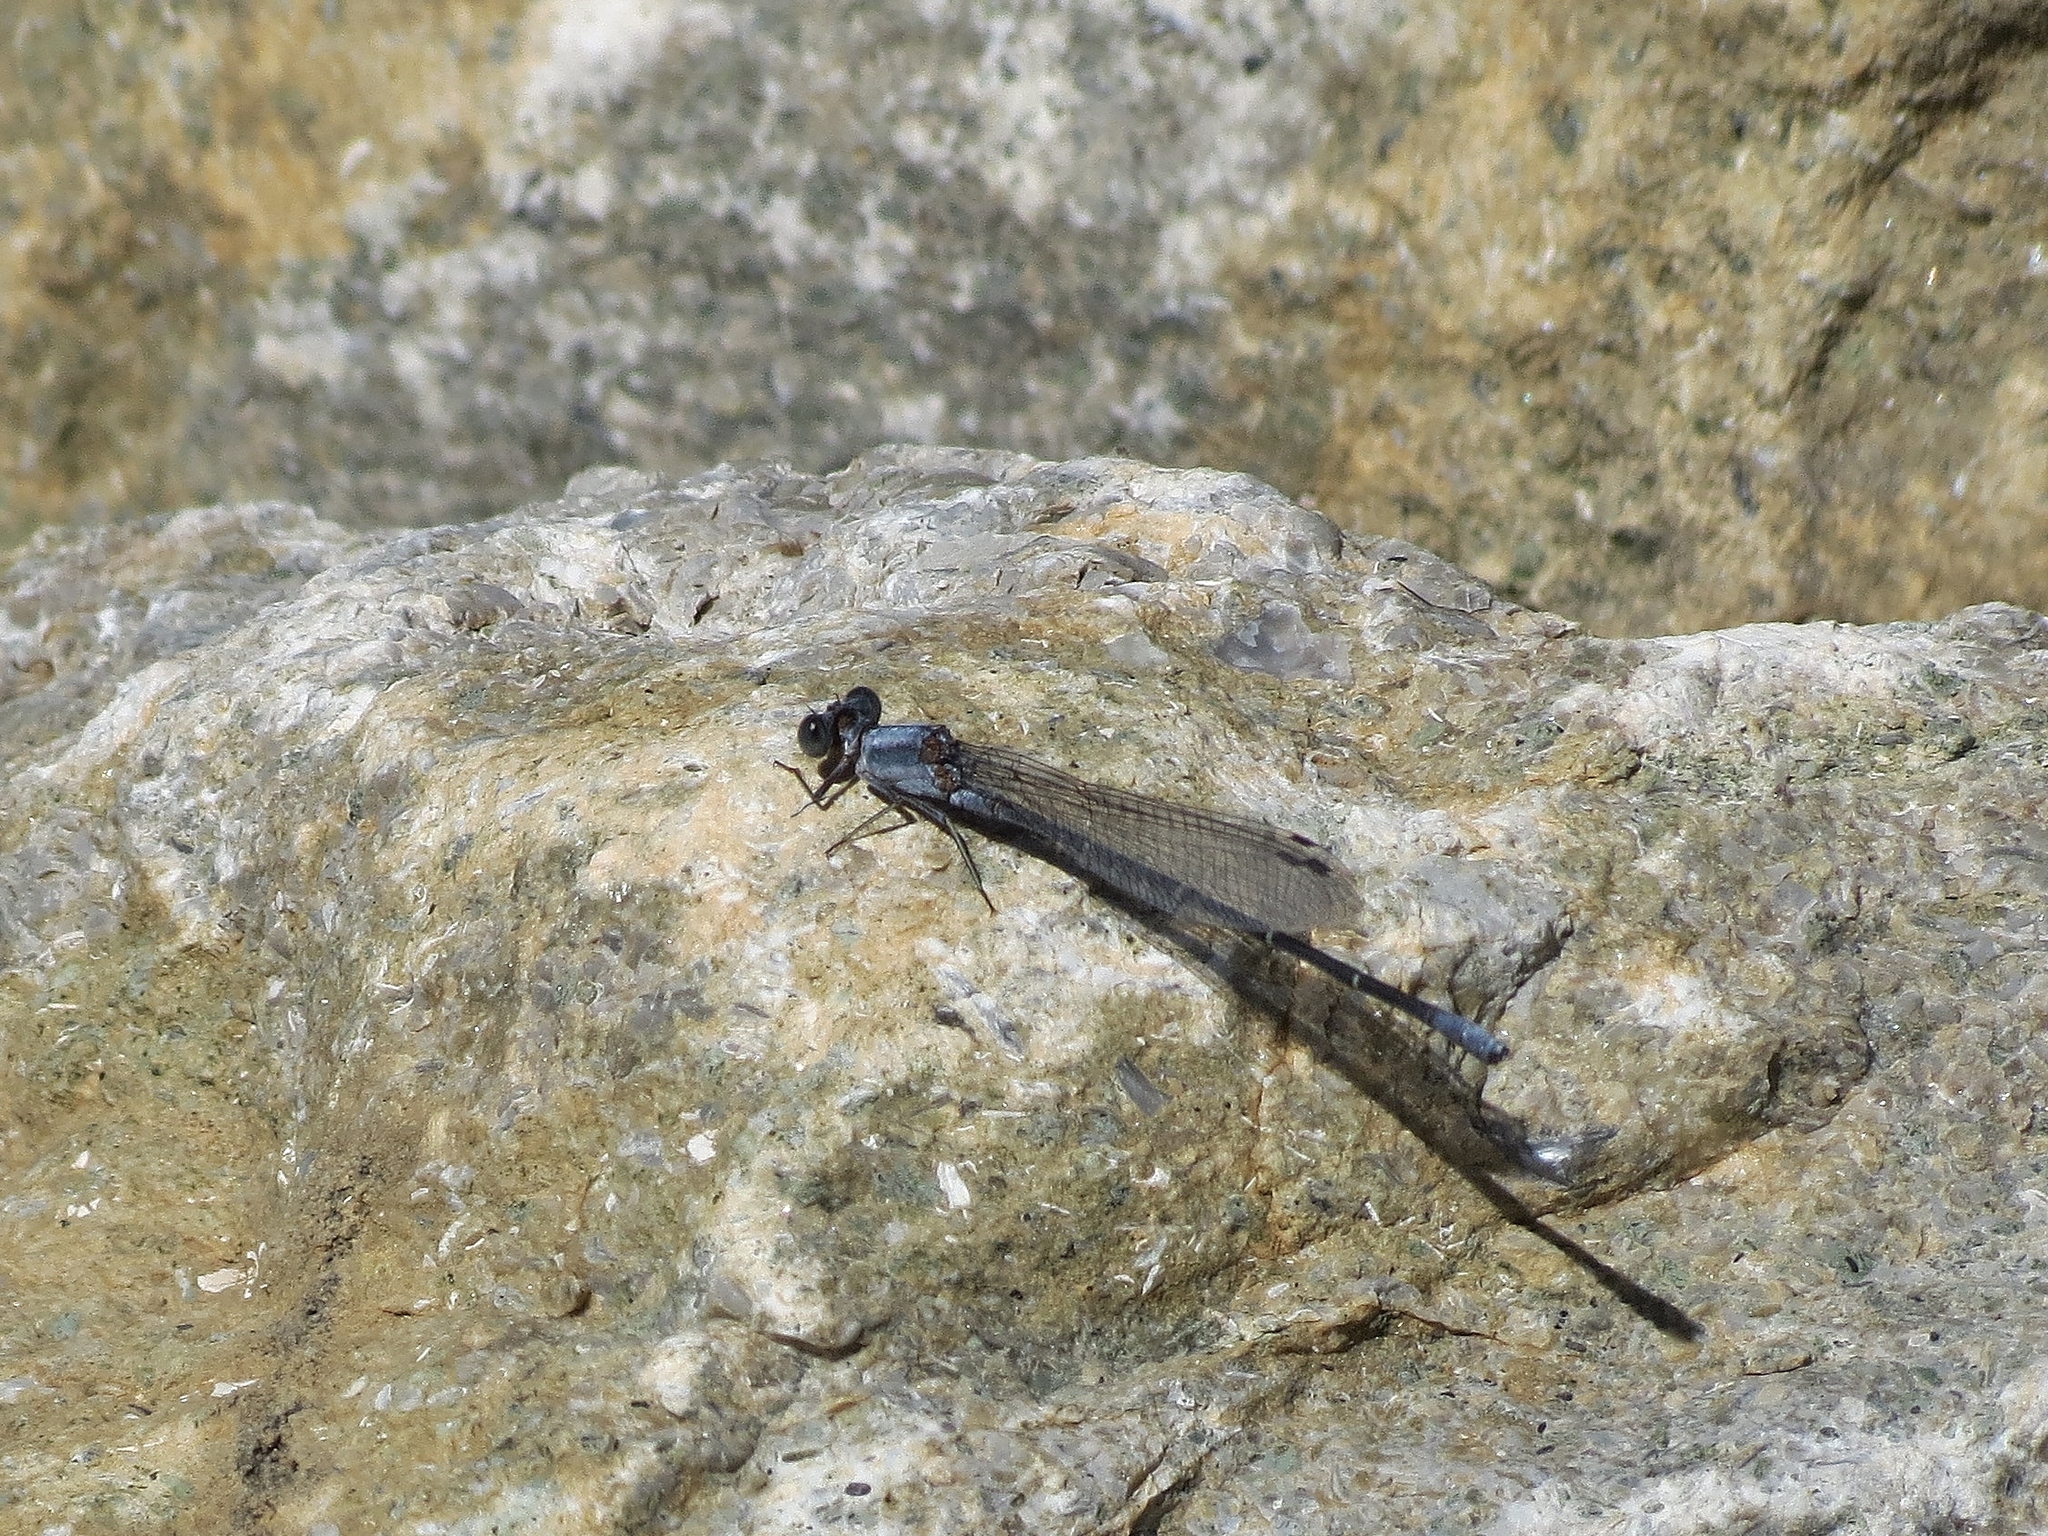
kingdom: Animalia
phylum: Arthropoda
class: Insecta
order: Odonata
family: Coenagrionidae
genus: Argia
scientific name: Argia moesta
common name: Powdered dancer
